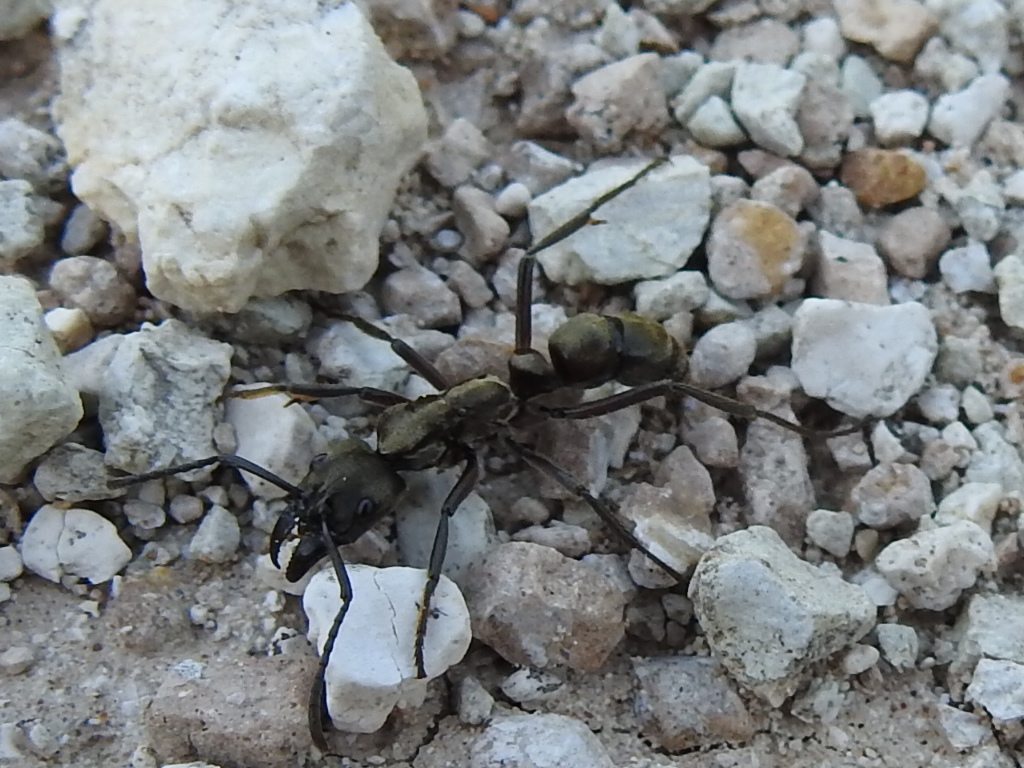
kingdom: Animalia
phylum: Arthropoda
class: Insecta
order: Hymenoptera
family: Formicidae
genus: Pachycondyla
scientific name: Pachycondyla villosa
